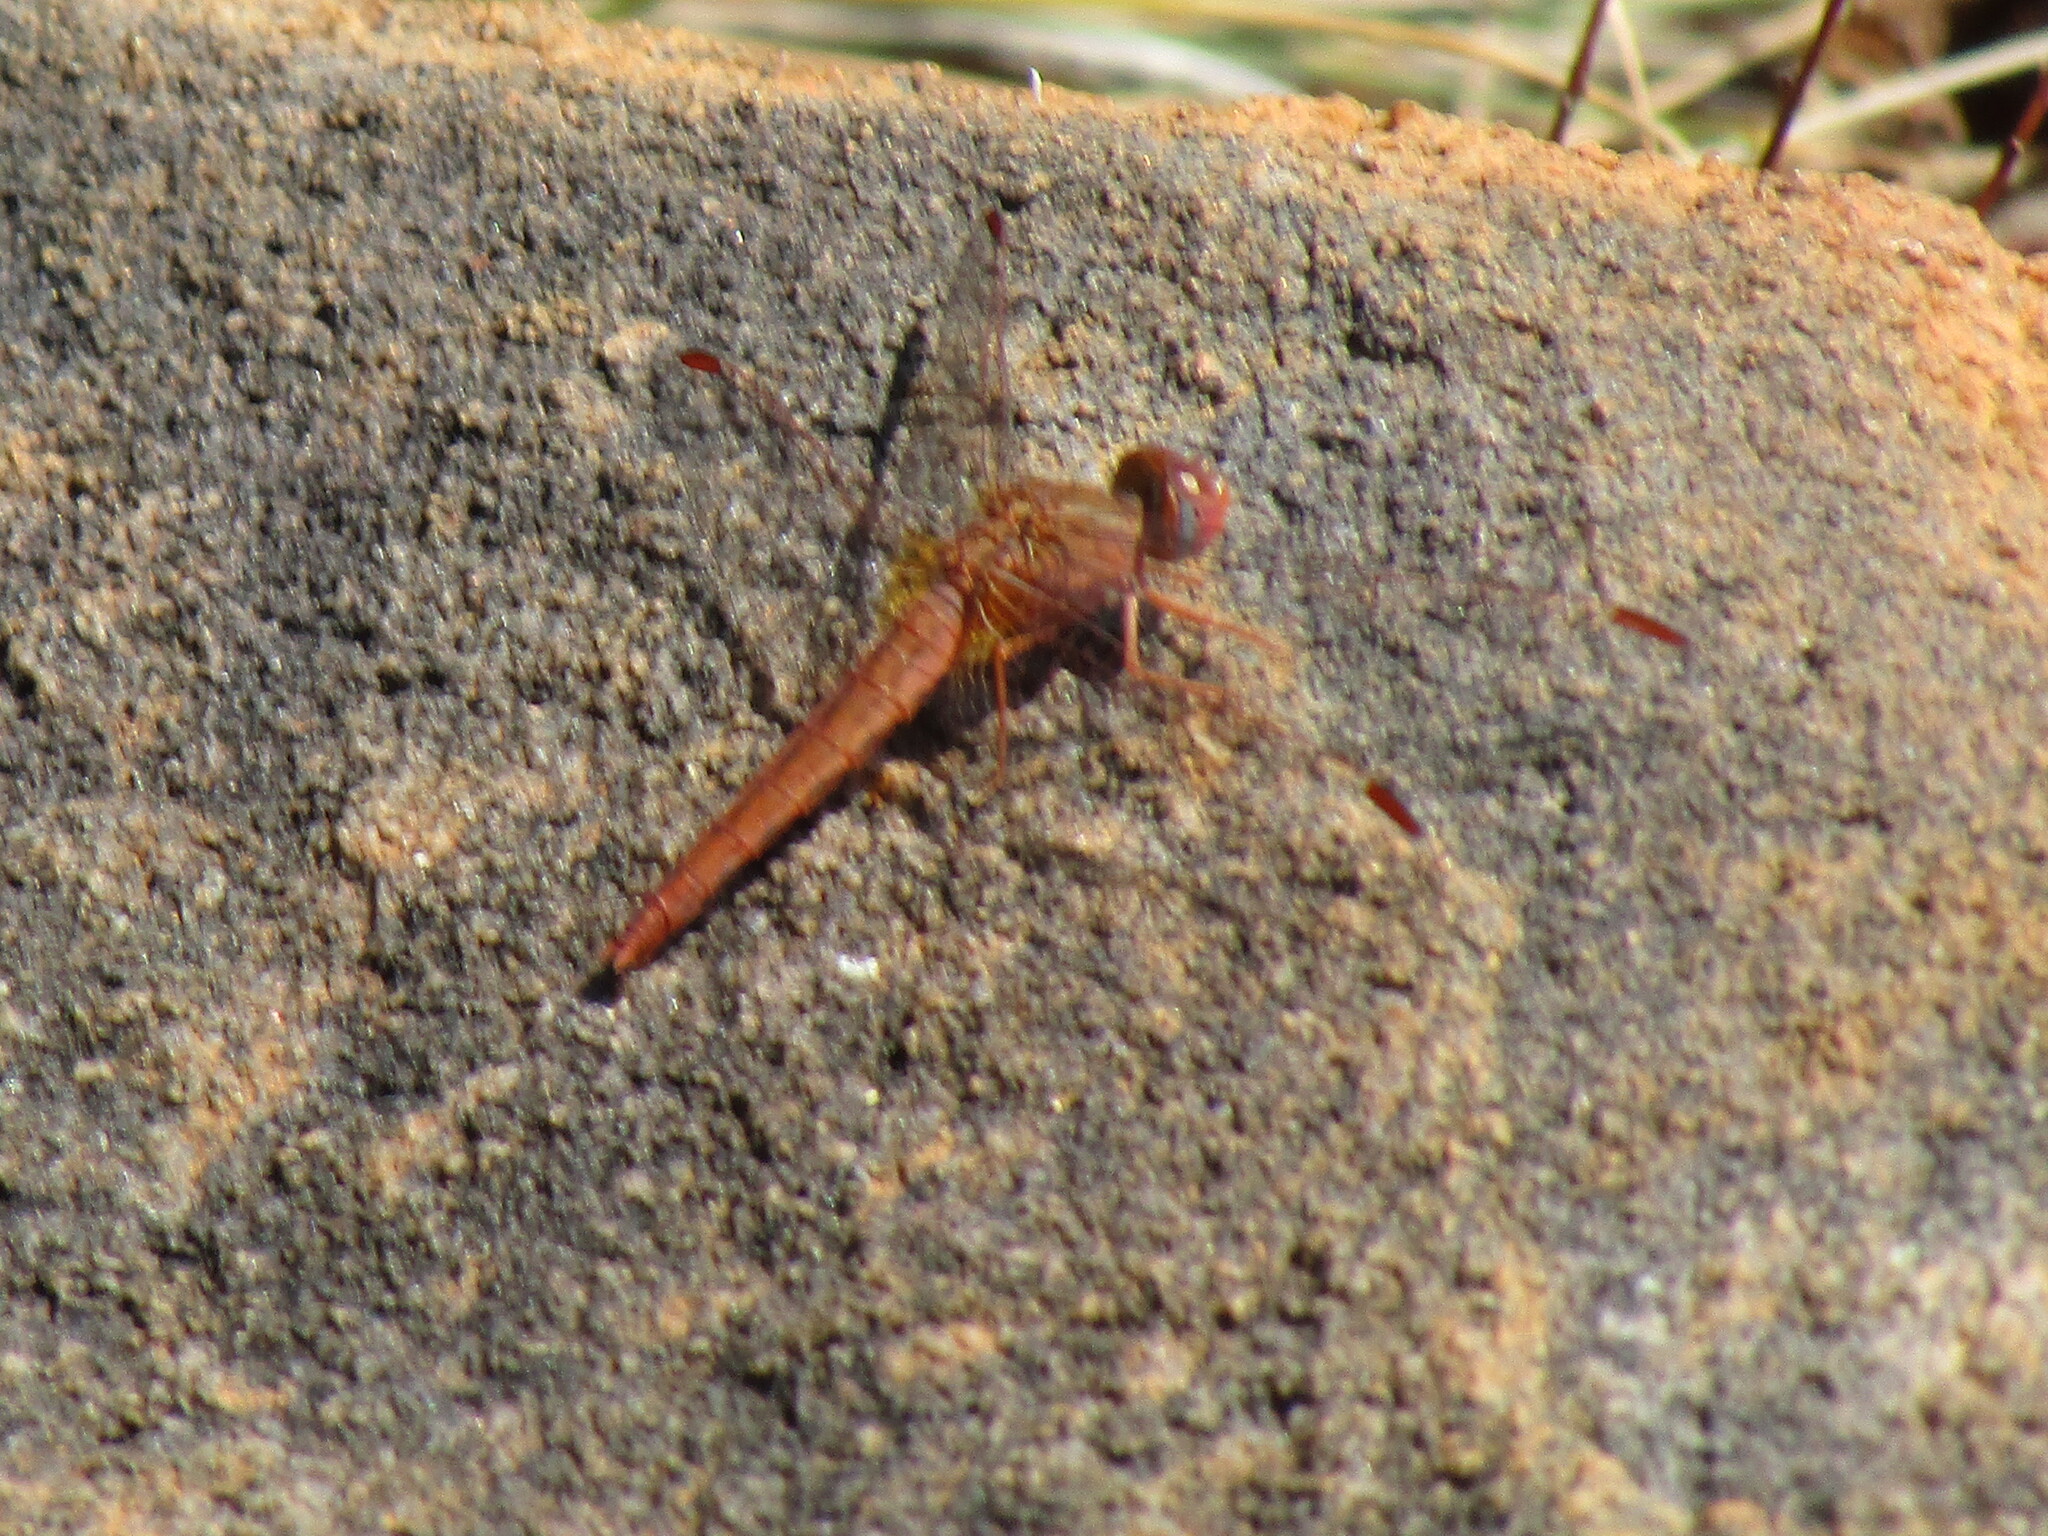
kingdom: Animalia
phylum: Arthropoda
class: Insecta
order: Odonata
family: Libellulidae
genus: Crocothemis
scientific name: Crocothemis sanguinolenta
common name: Little scarlet
